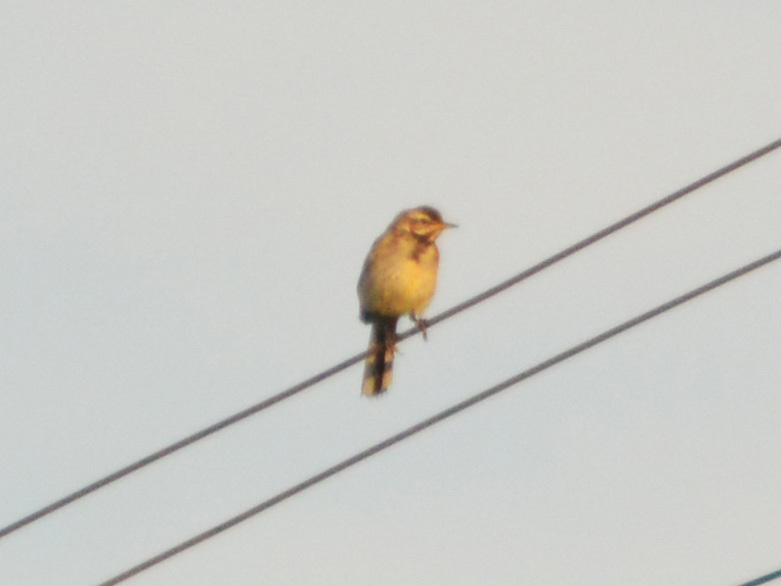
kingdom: Animalia
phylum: Chordata
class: Aves
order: Passeriformes
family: Motacillidae
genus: Motacilla
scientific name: Motacilla flava
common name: Western yellow wagtail
